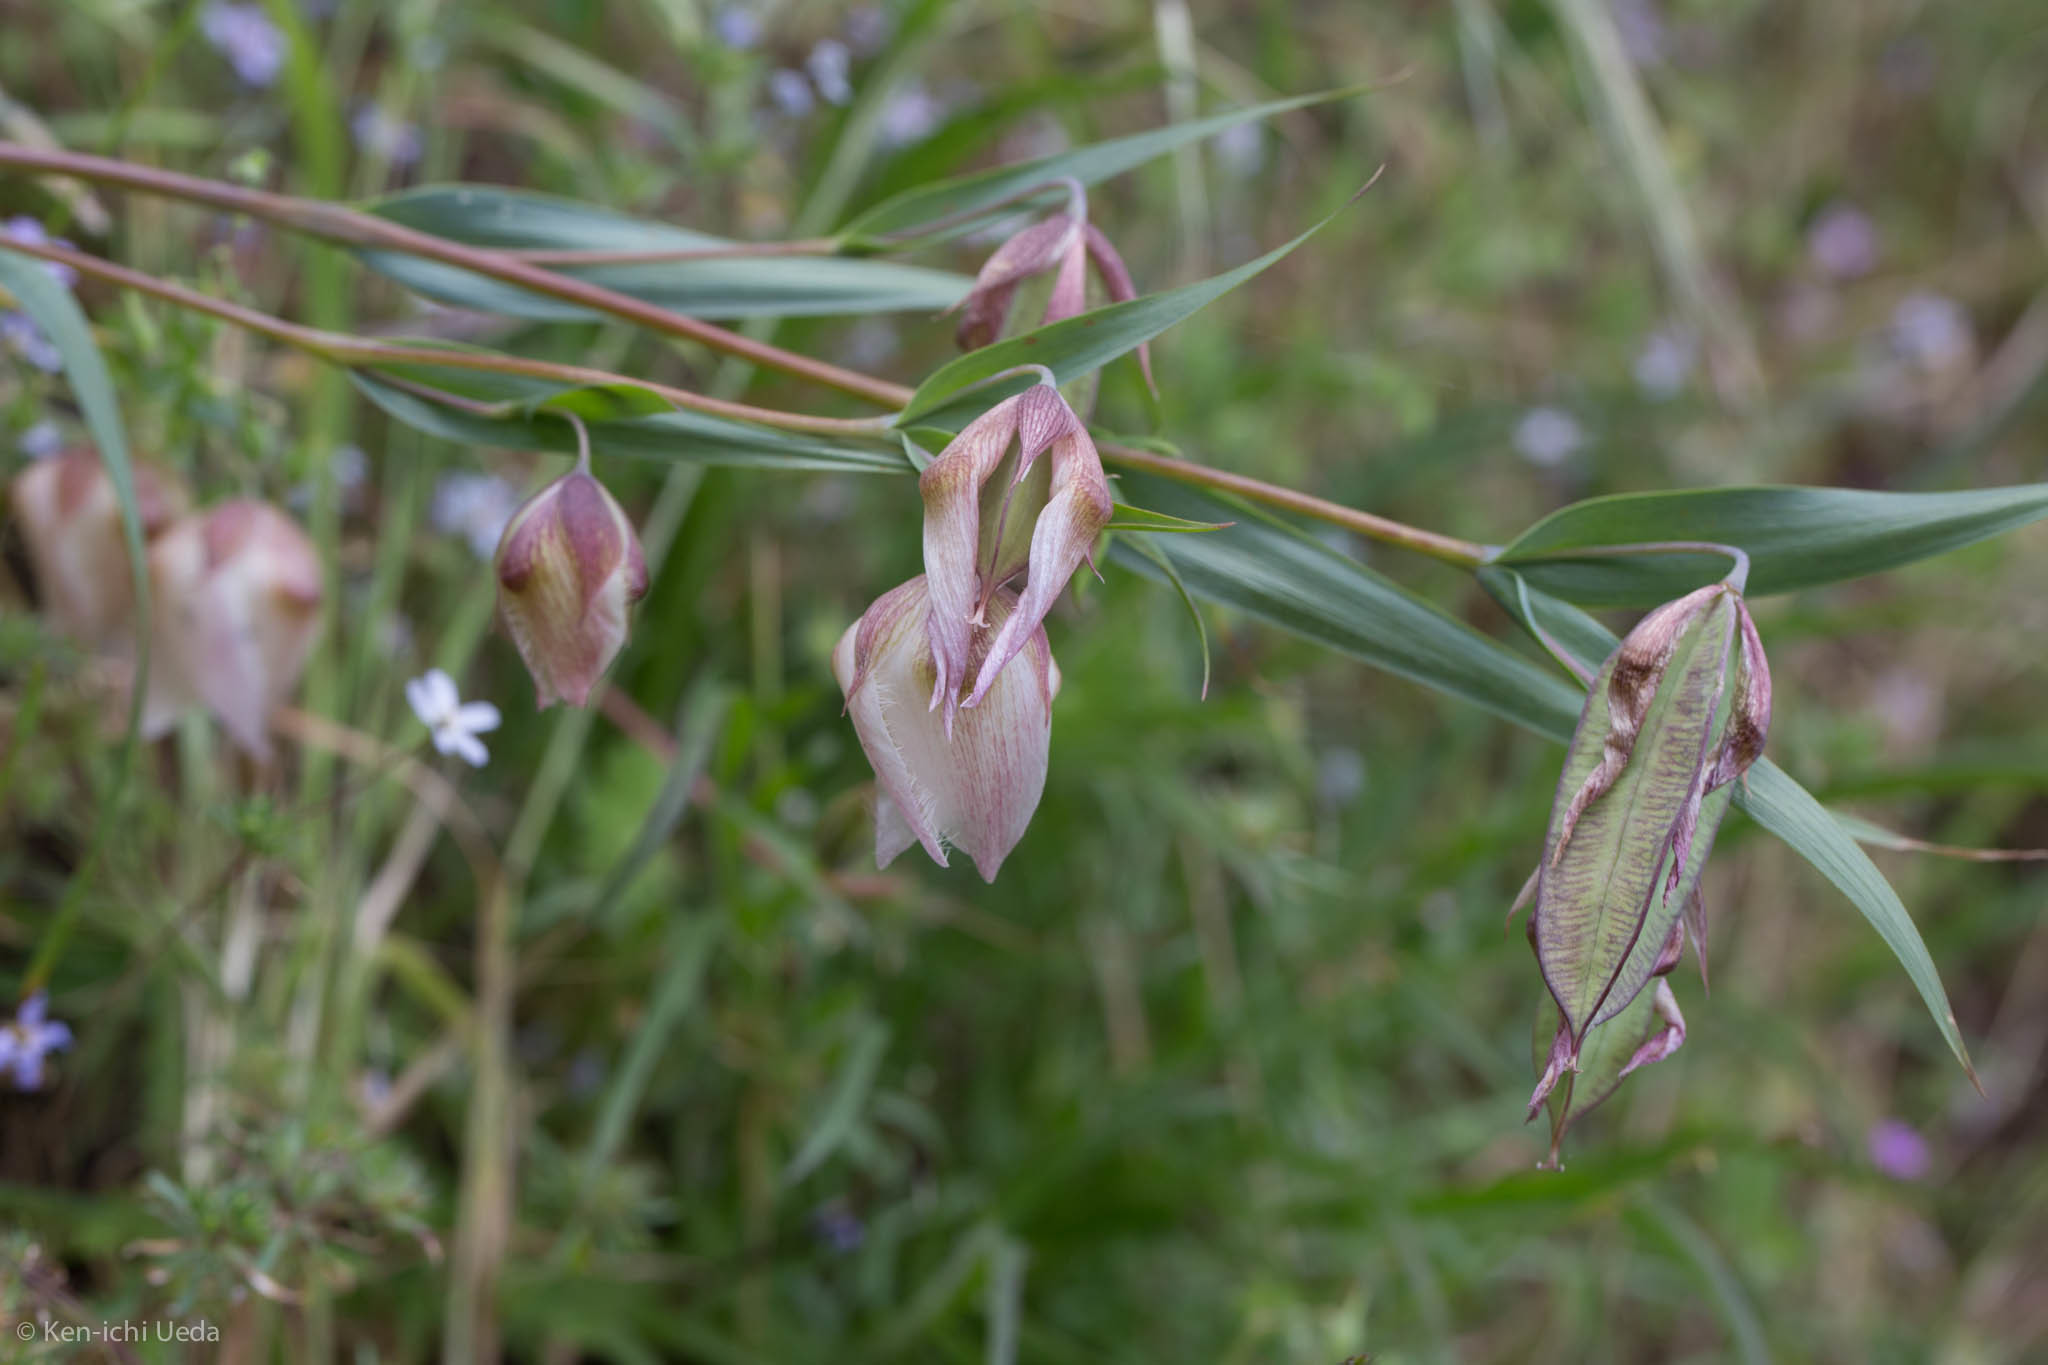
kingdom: Plantae
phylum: Tracheophyta
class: Liliopsida
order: Liliales
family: Liliaceae
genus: Calochortus
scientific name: Calochortus albus
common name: Fairy-lantern
